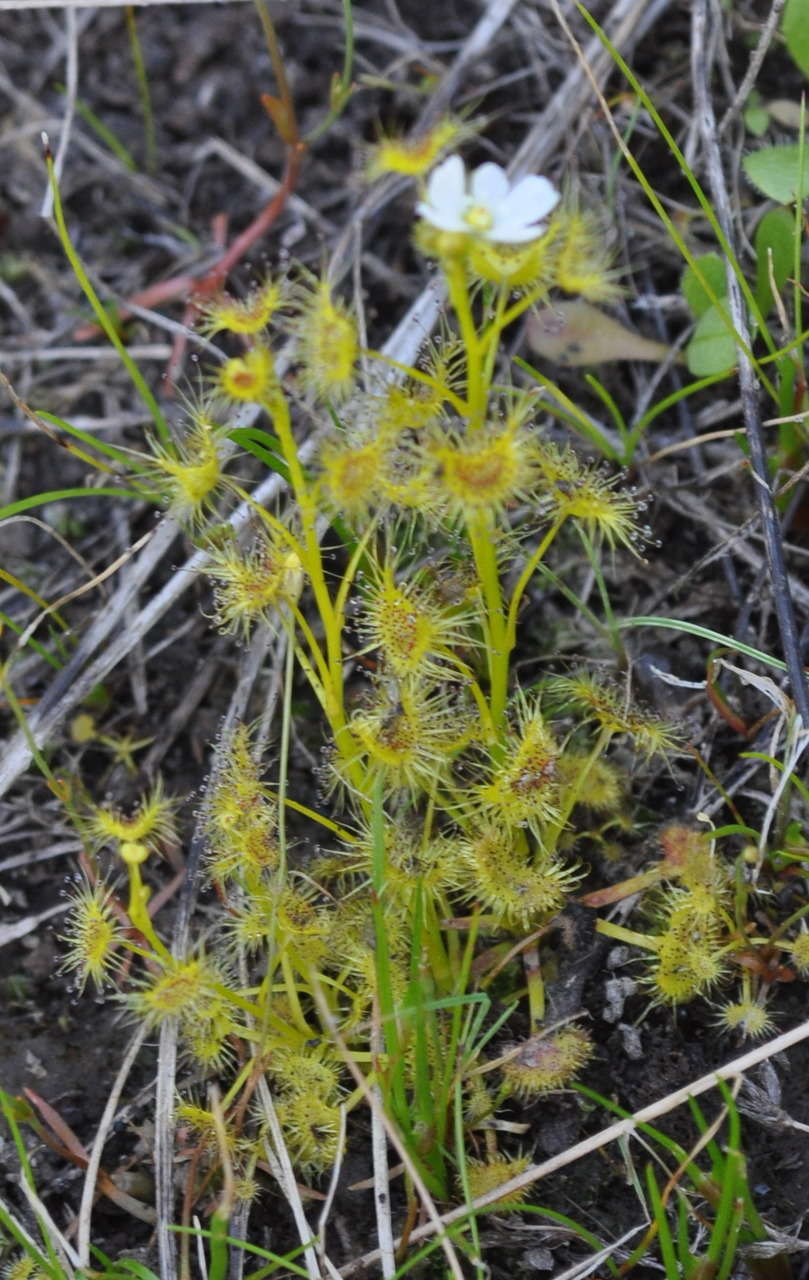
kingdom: Plantae
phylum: Tracheophyta
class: Magnoliopsida
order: Caryophyllales
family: Droseraceae
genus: Drosera
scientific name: Drosera hookeri
